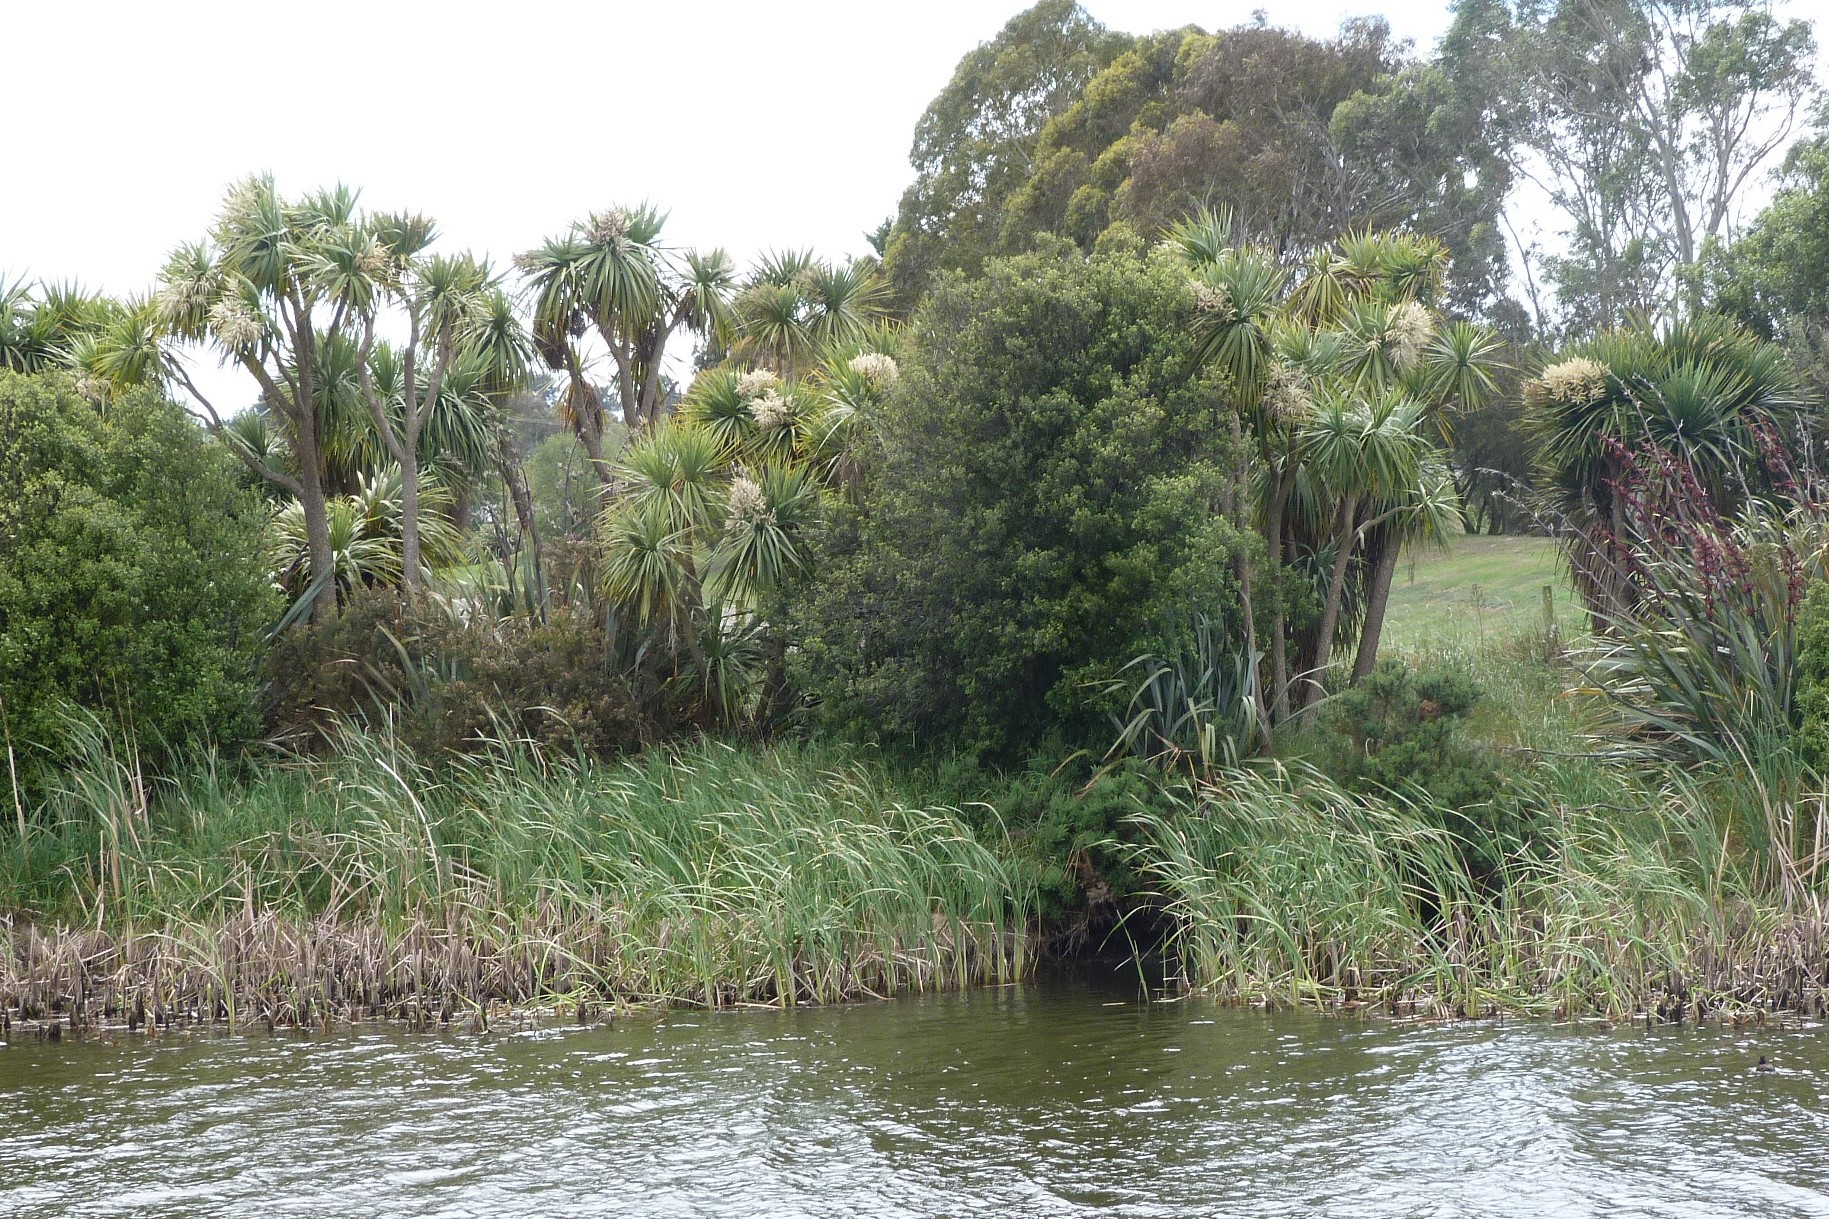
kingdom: Plantae
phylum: Tracheophyta
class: Liliopsida
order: Poales
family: Typhaceae
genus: Typha
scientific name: Typha orientalis
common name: Bullrush
